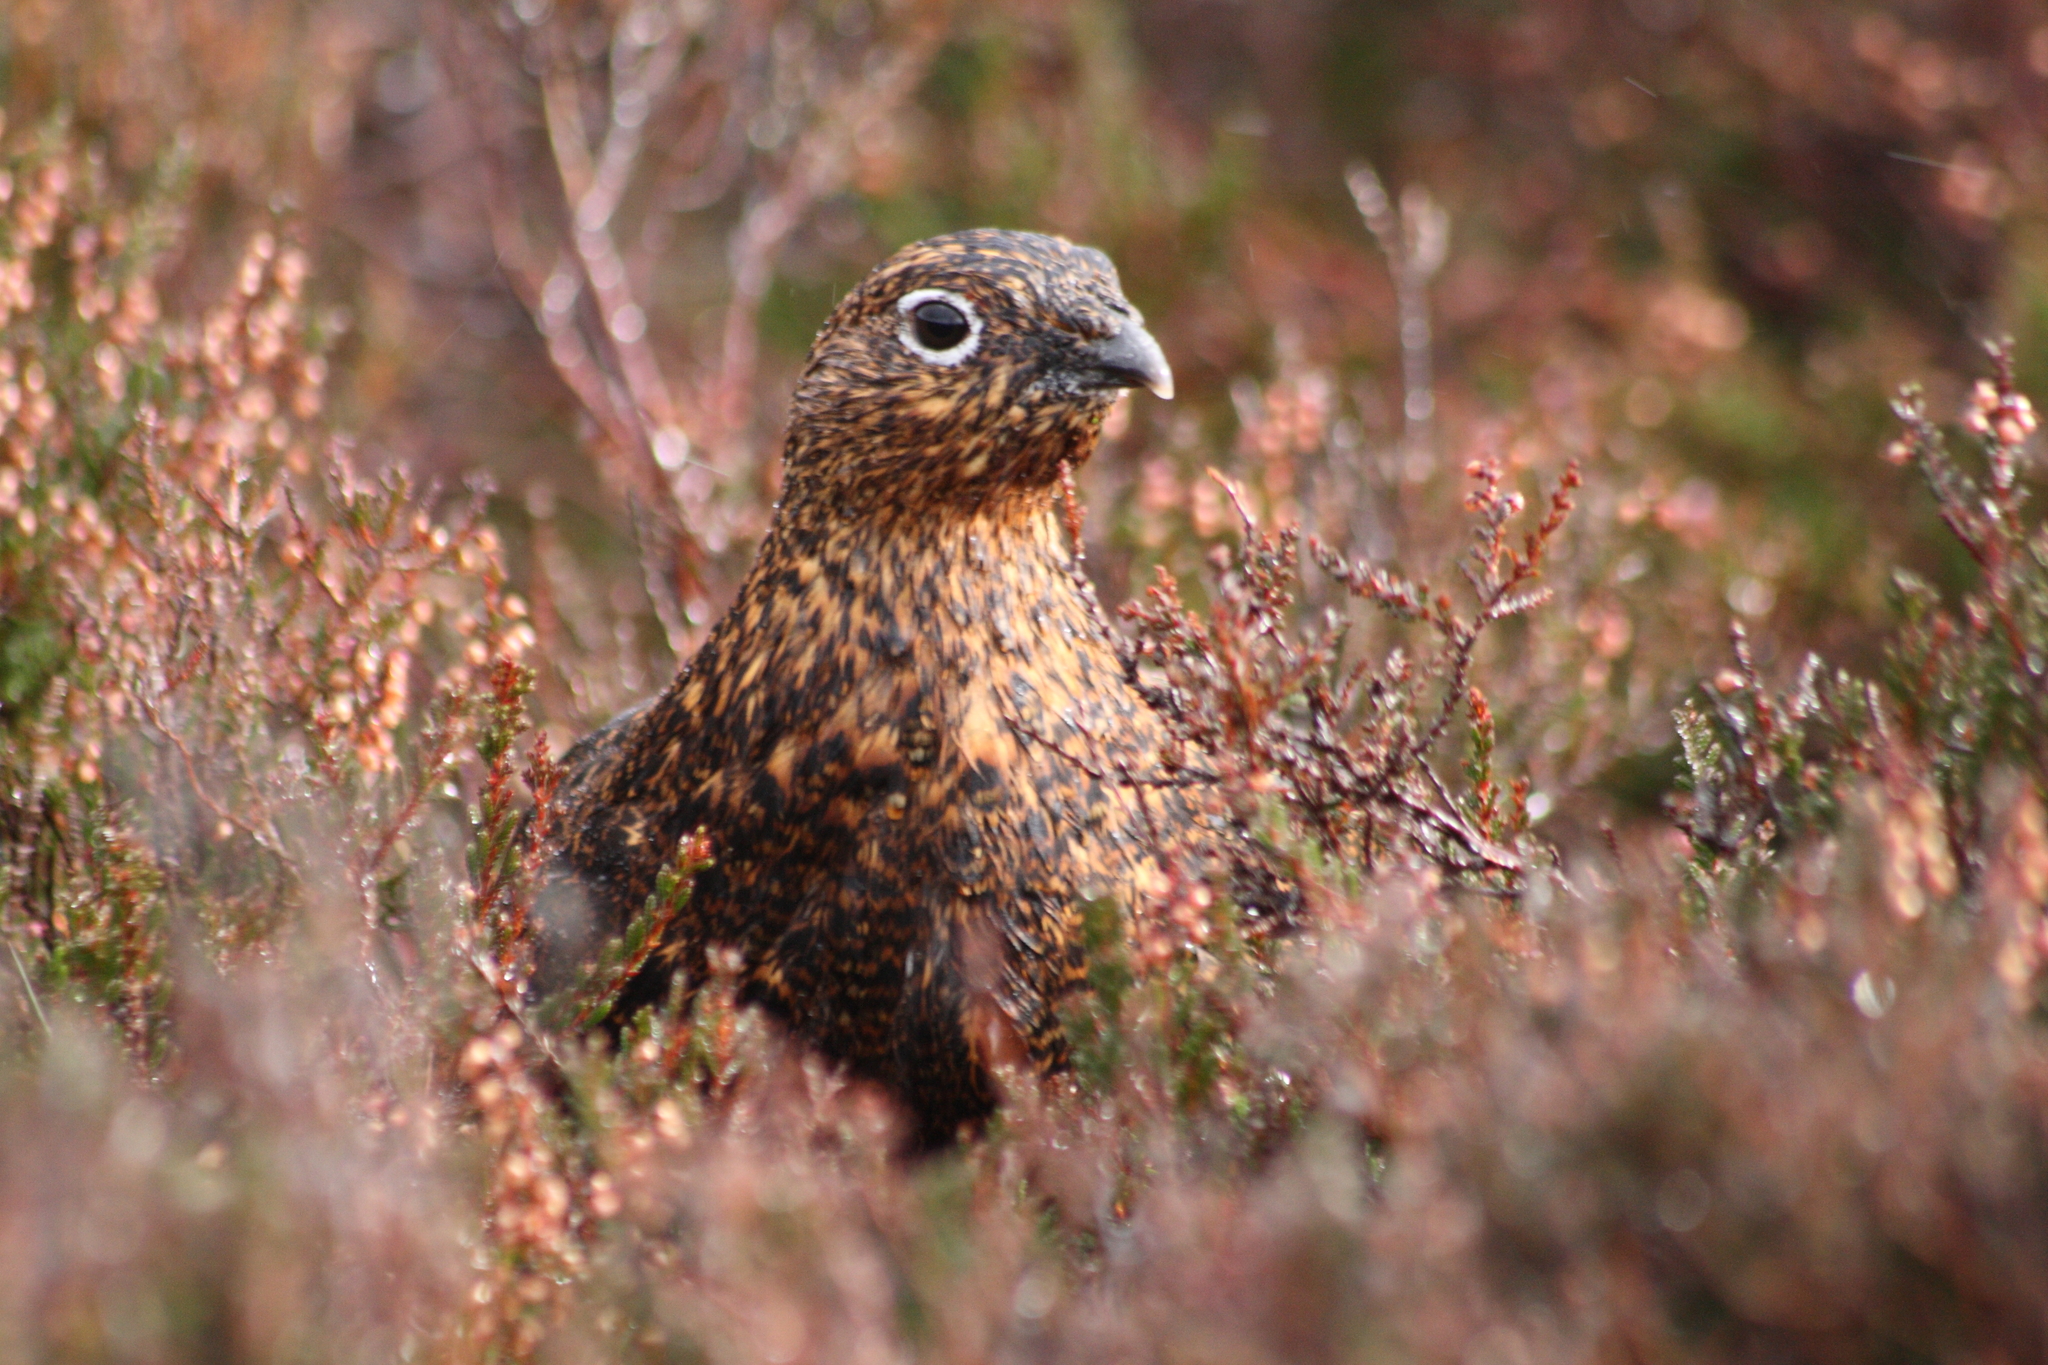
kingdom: Animalia
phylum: Chordata
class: Aves
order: Galliformes
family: Phasianidae
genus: Lagopus
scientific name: Lagopus lagopus
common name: Willow ptarmigan
